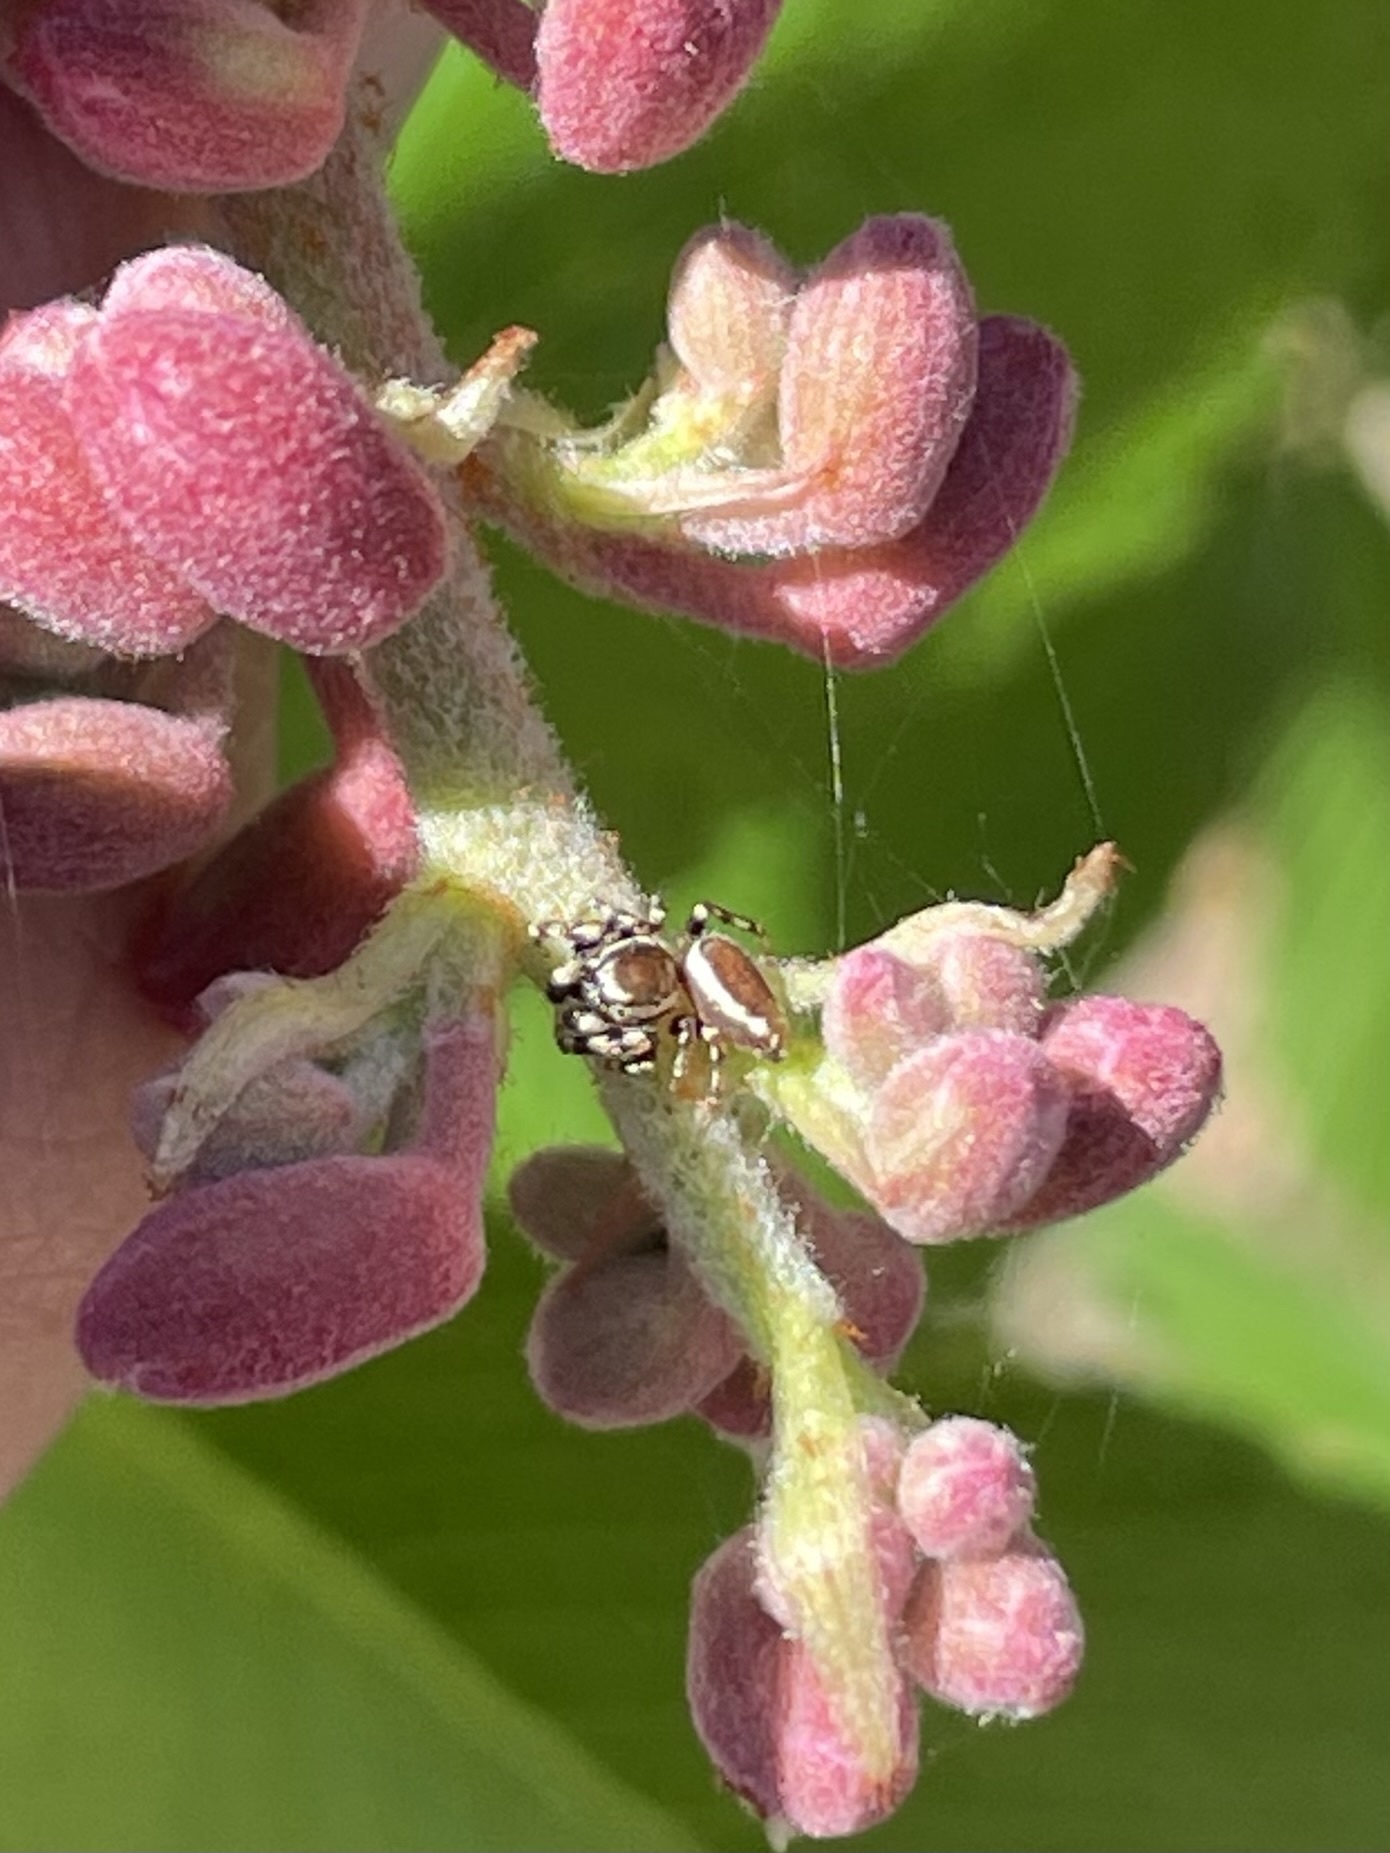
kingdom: Animalia
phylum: Arthropoda
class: Arachnida
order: Araneae
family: Salticidae
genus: Pelegrina
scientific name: Pelegrina proterva
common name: Common white-cheeked jumping spider
